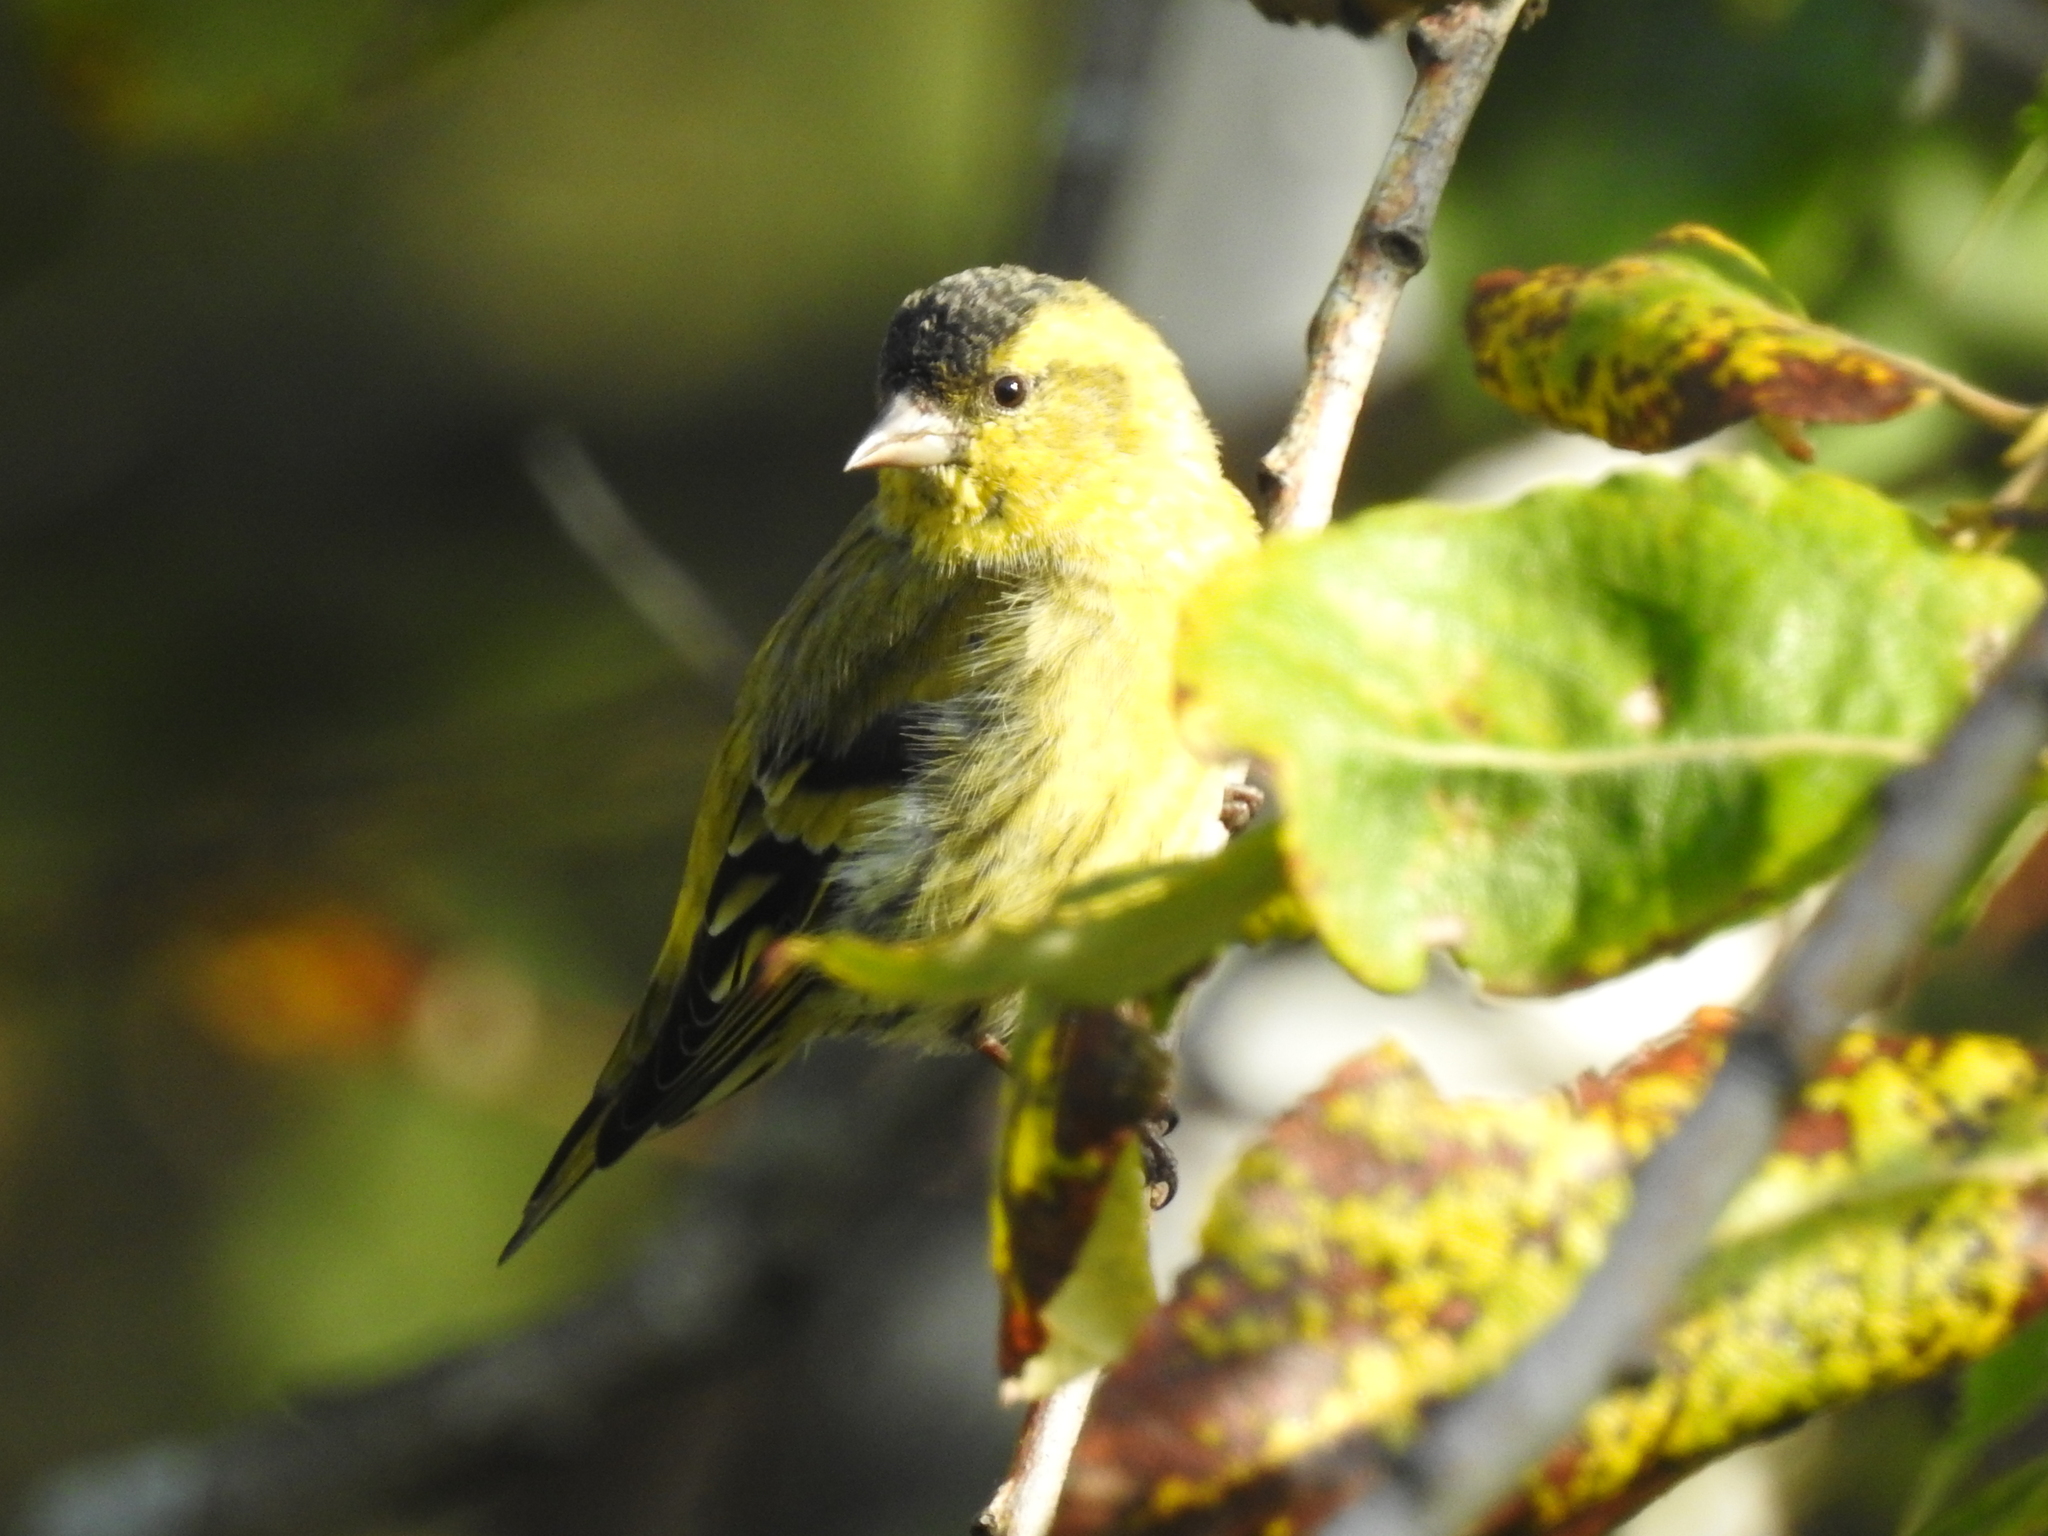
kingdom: Animalia
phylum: Chordata
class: Aves
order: Passeriformes
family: Fringillidae
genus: Spinus
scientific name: Spinus spinus
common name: Eurasian siskin
